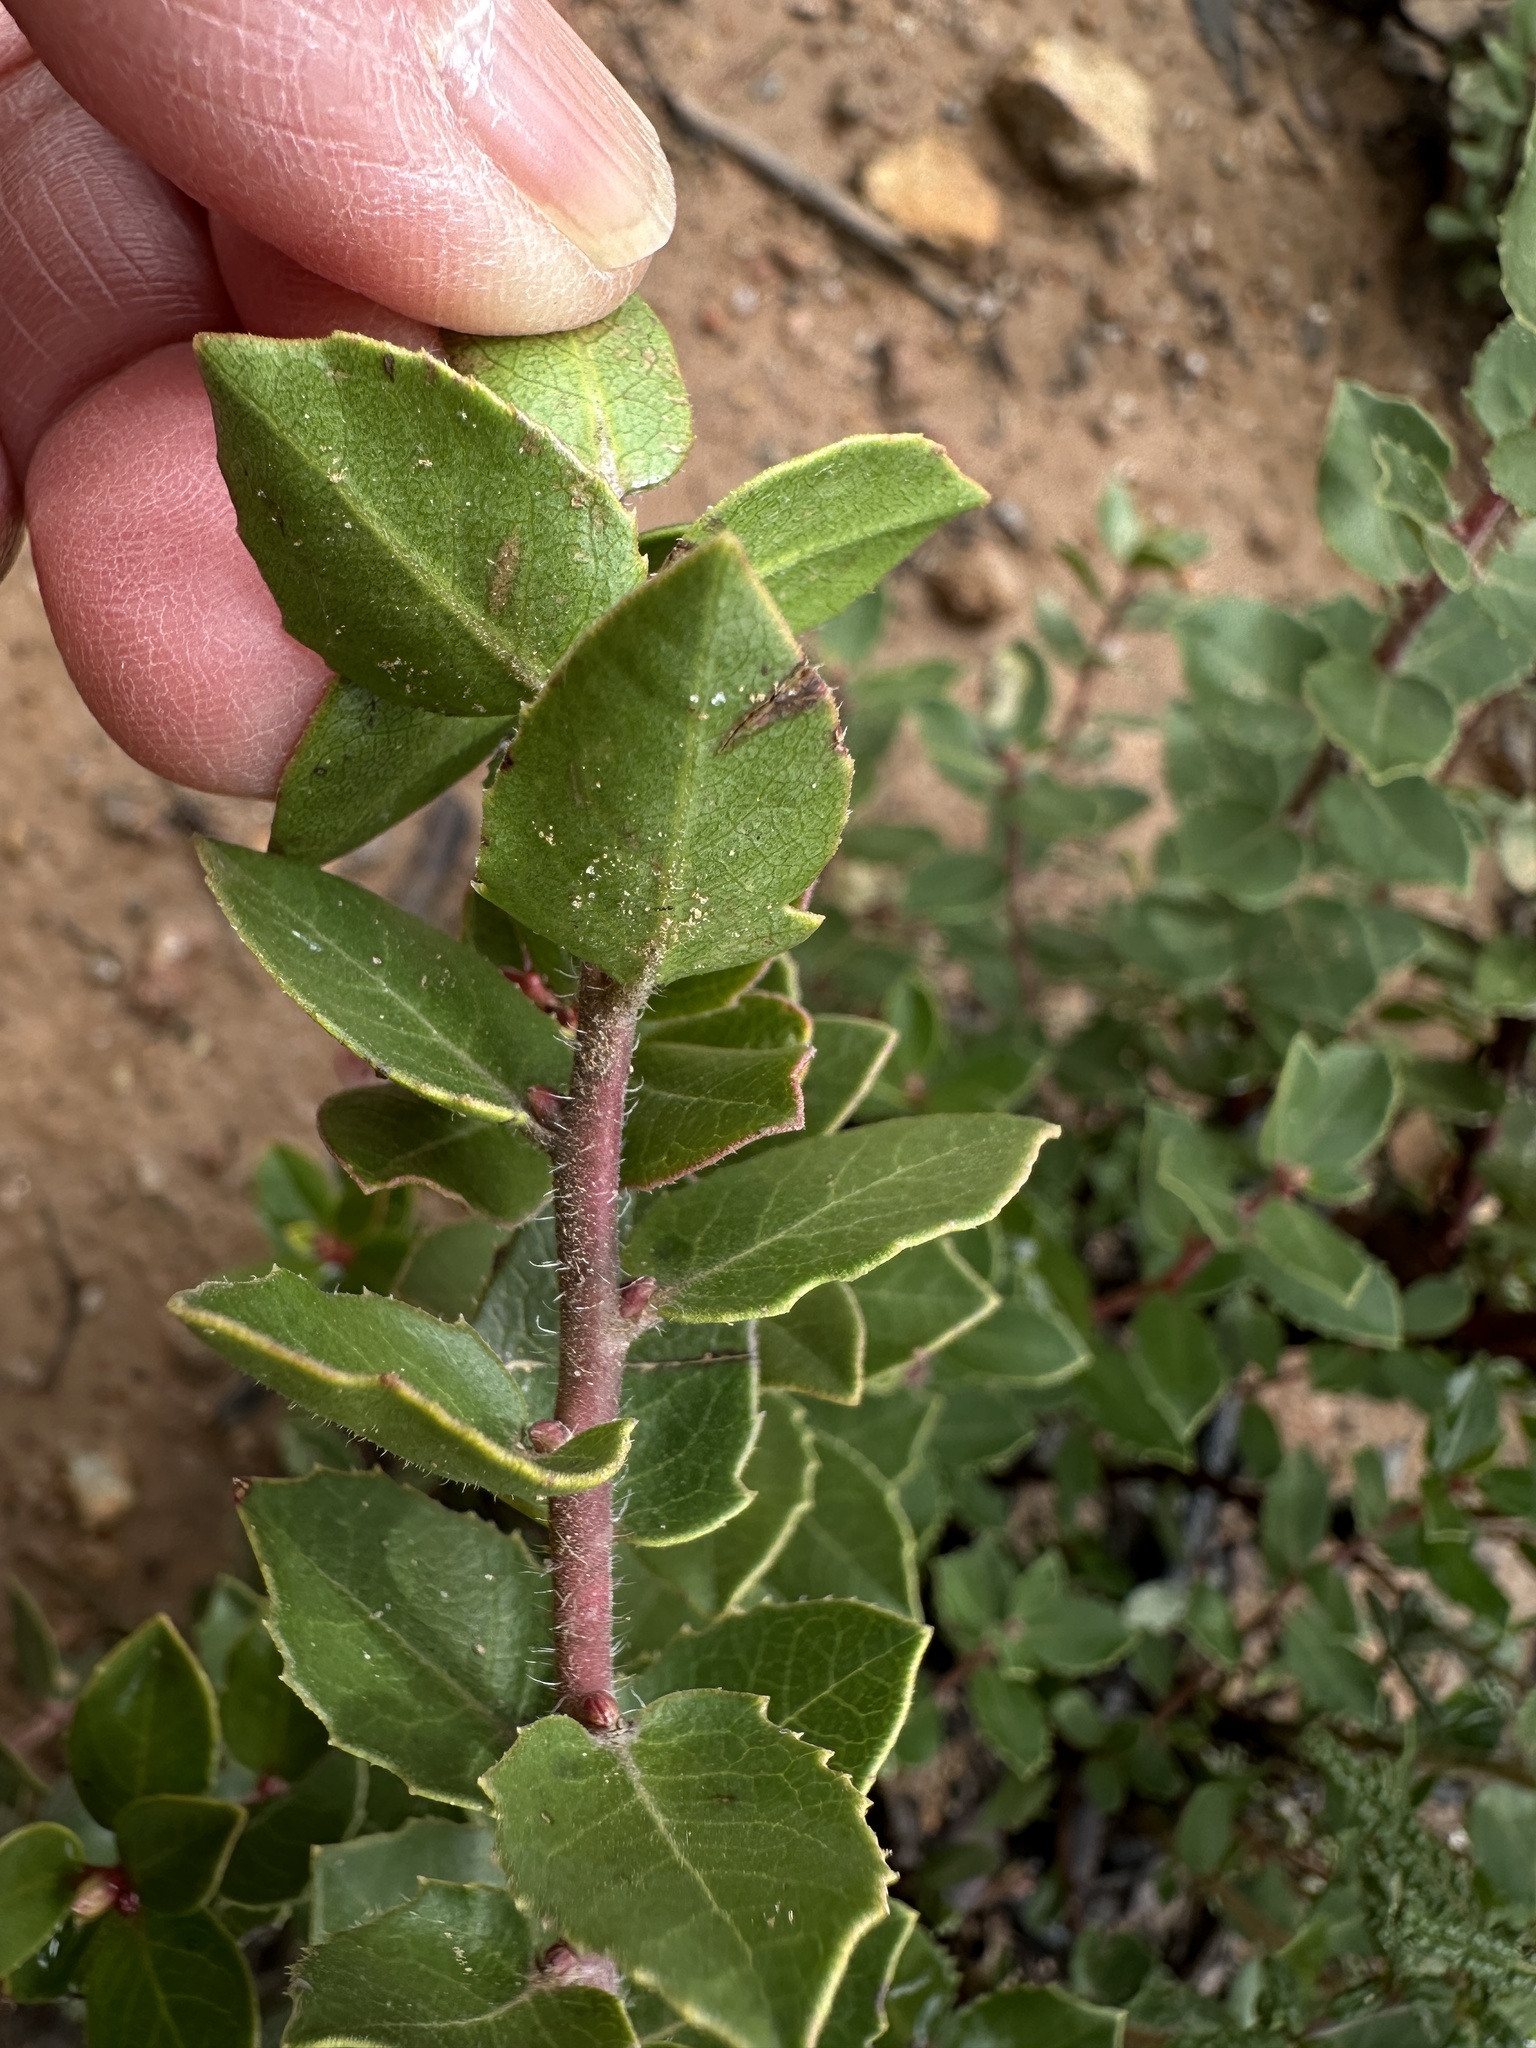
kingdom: Plantae
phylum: Tracheophyta
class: Magnoliopsida
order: Ericales
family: Ericaceae
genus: Arctostaphylos
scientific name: Arctostaphylos nummularia
